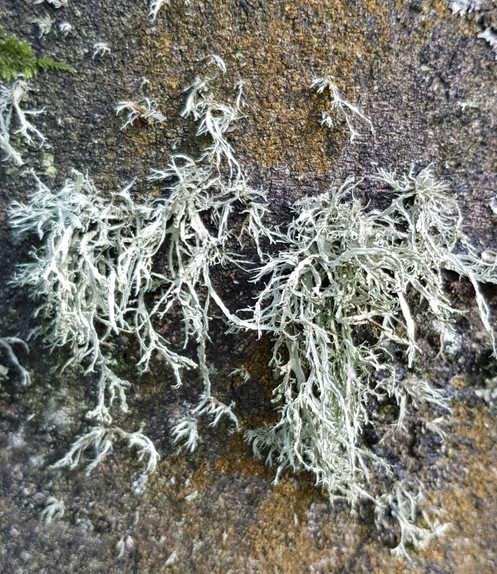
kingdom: Fungi
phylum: Ascomycota
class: Lecanoromycetes
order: Lecanorales
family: Ramalinaceae
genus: Ramalina
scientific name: Ramalina farinacea
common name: Farinose cartilage lichen
